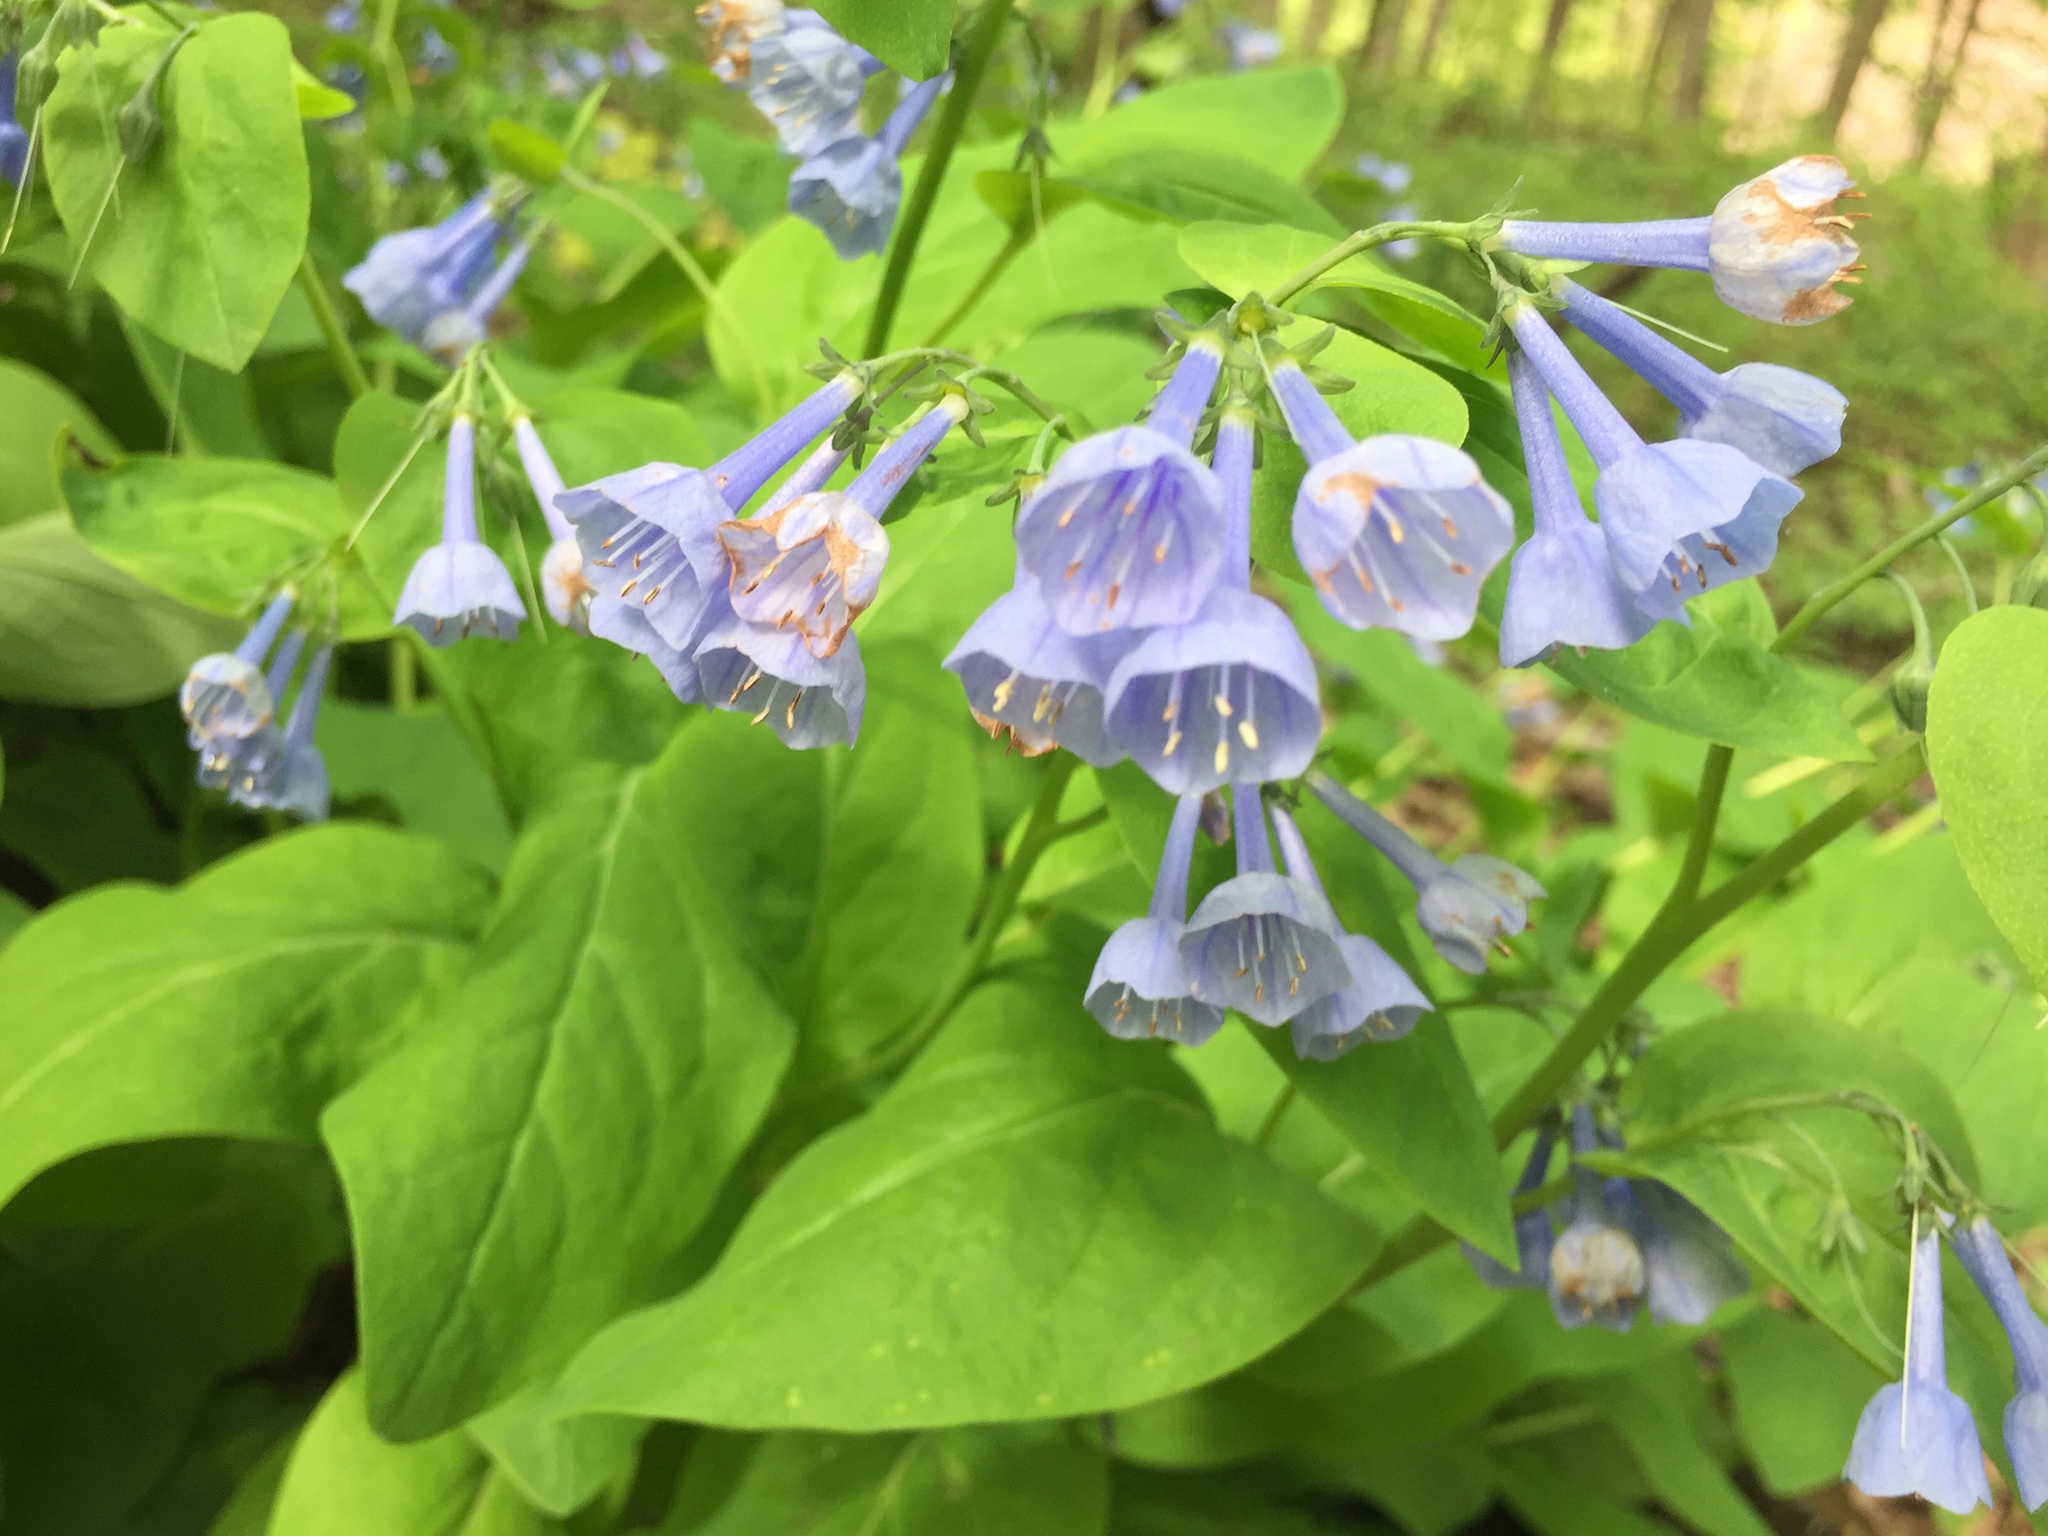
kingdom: Plantae
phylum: Tracheophyta
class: Magnoliopsida
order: Boraginales
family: Boraginaceae
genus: Mertensia
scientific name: Mertensia virginica
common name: Virginia bluebells
